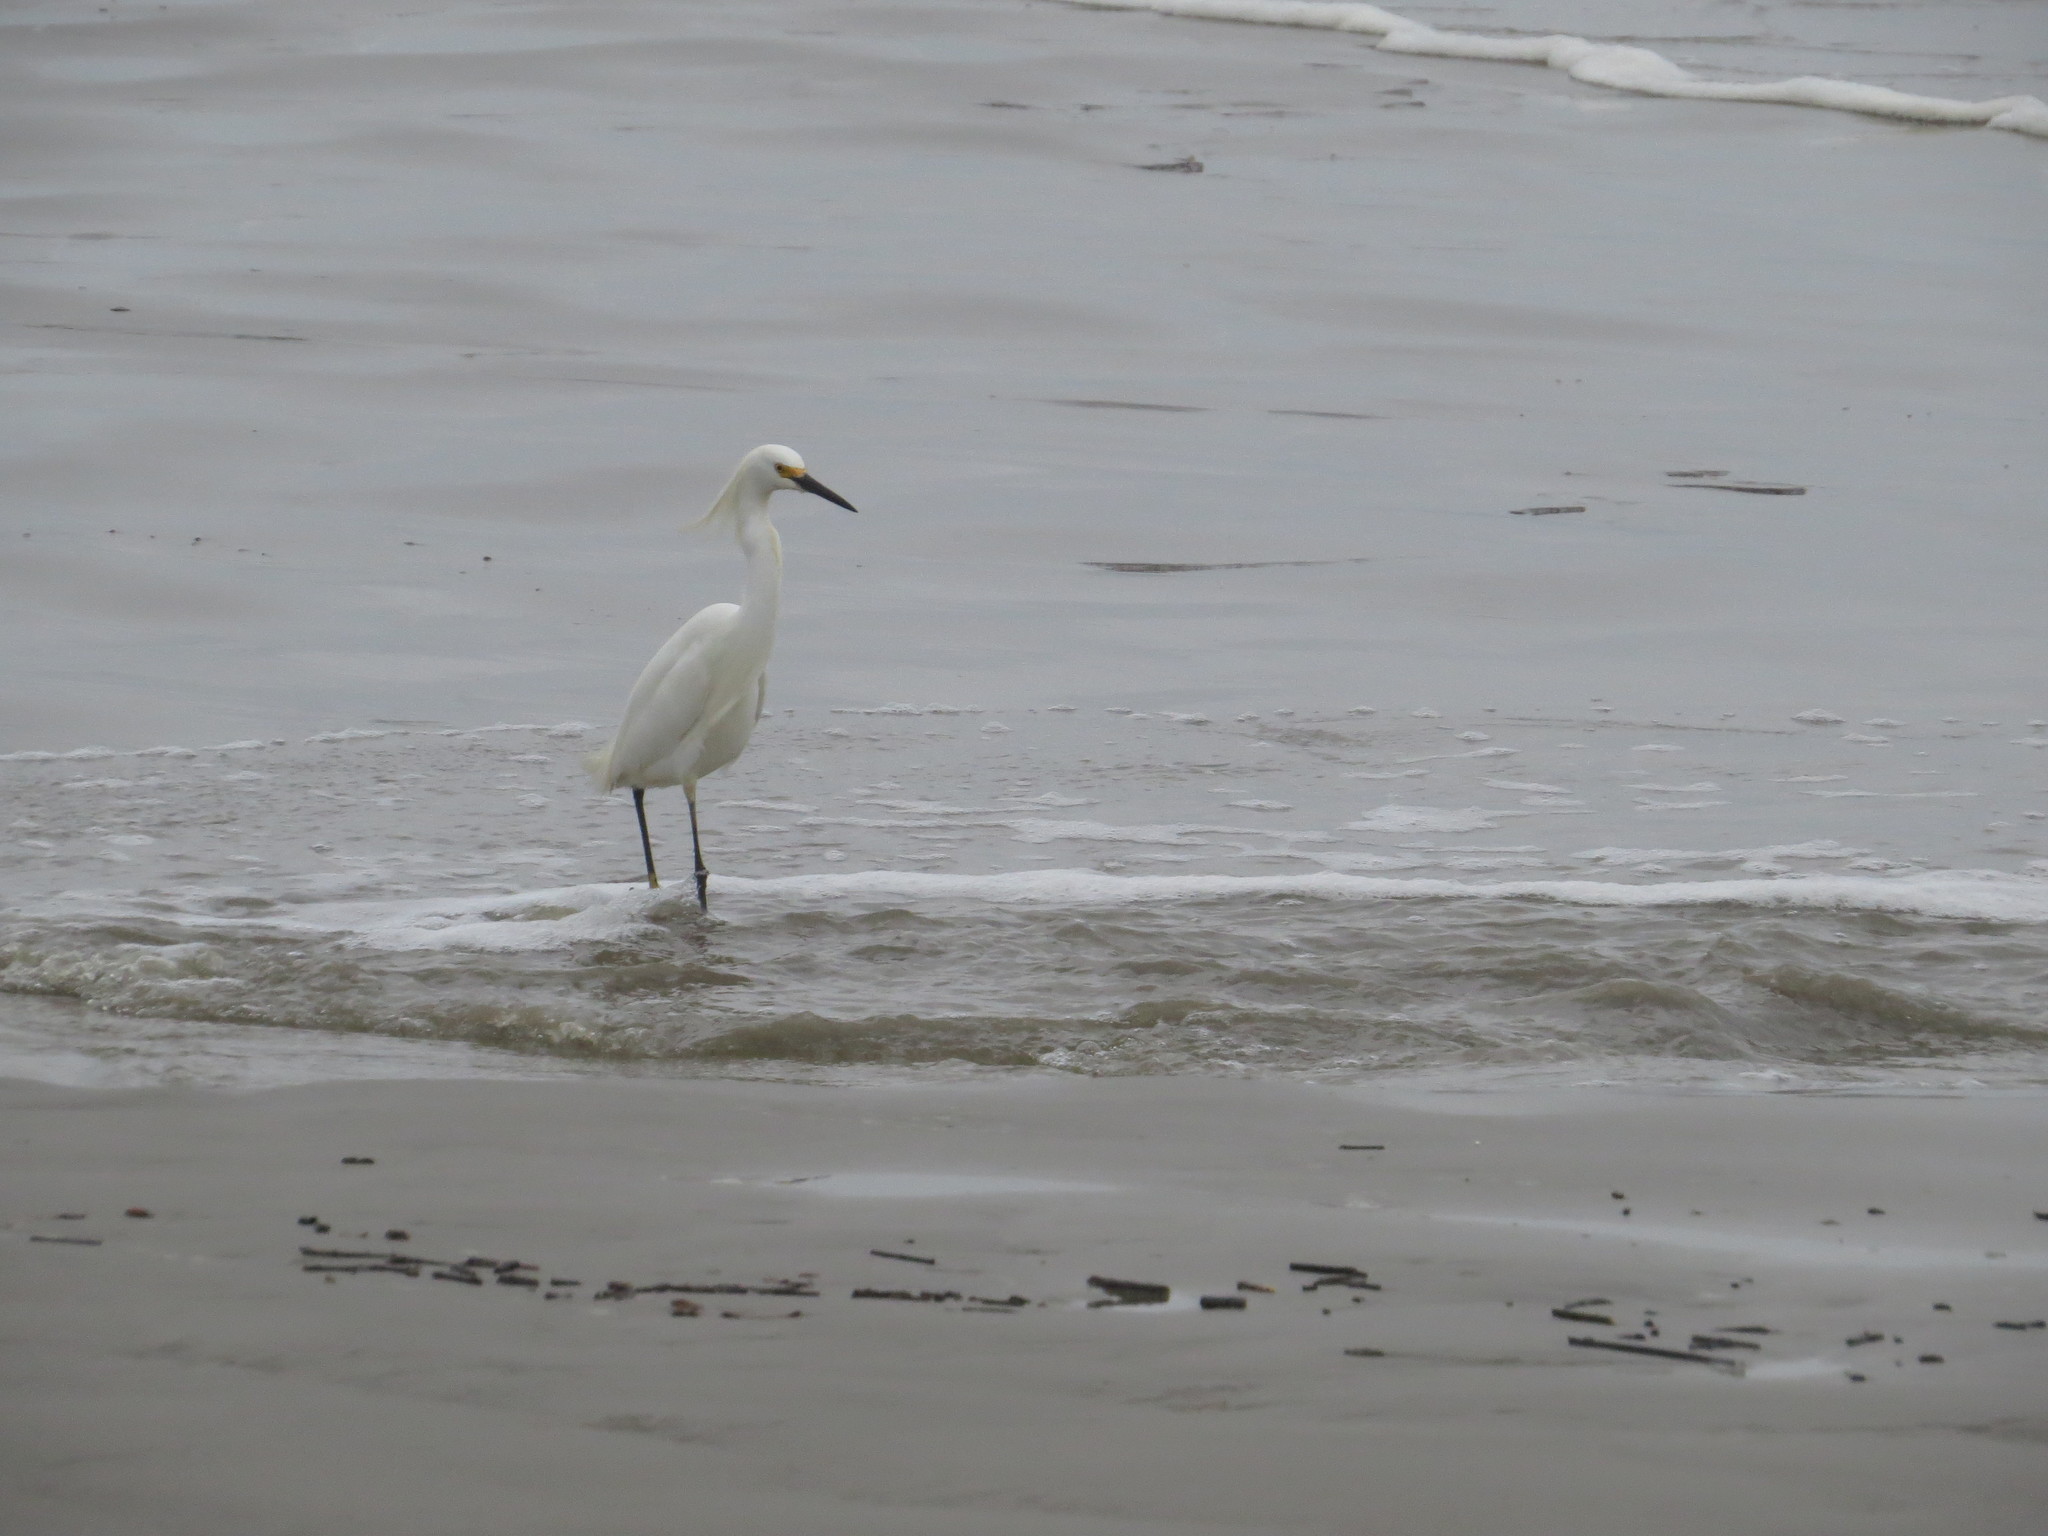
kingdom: Animalia
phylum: Chordata
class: Aves
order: Pelecaniformes
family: Ardeidae
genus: Egretta
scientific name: Egretta thula
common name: Snowy egret
